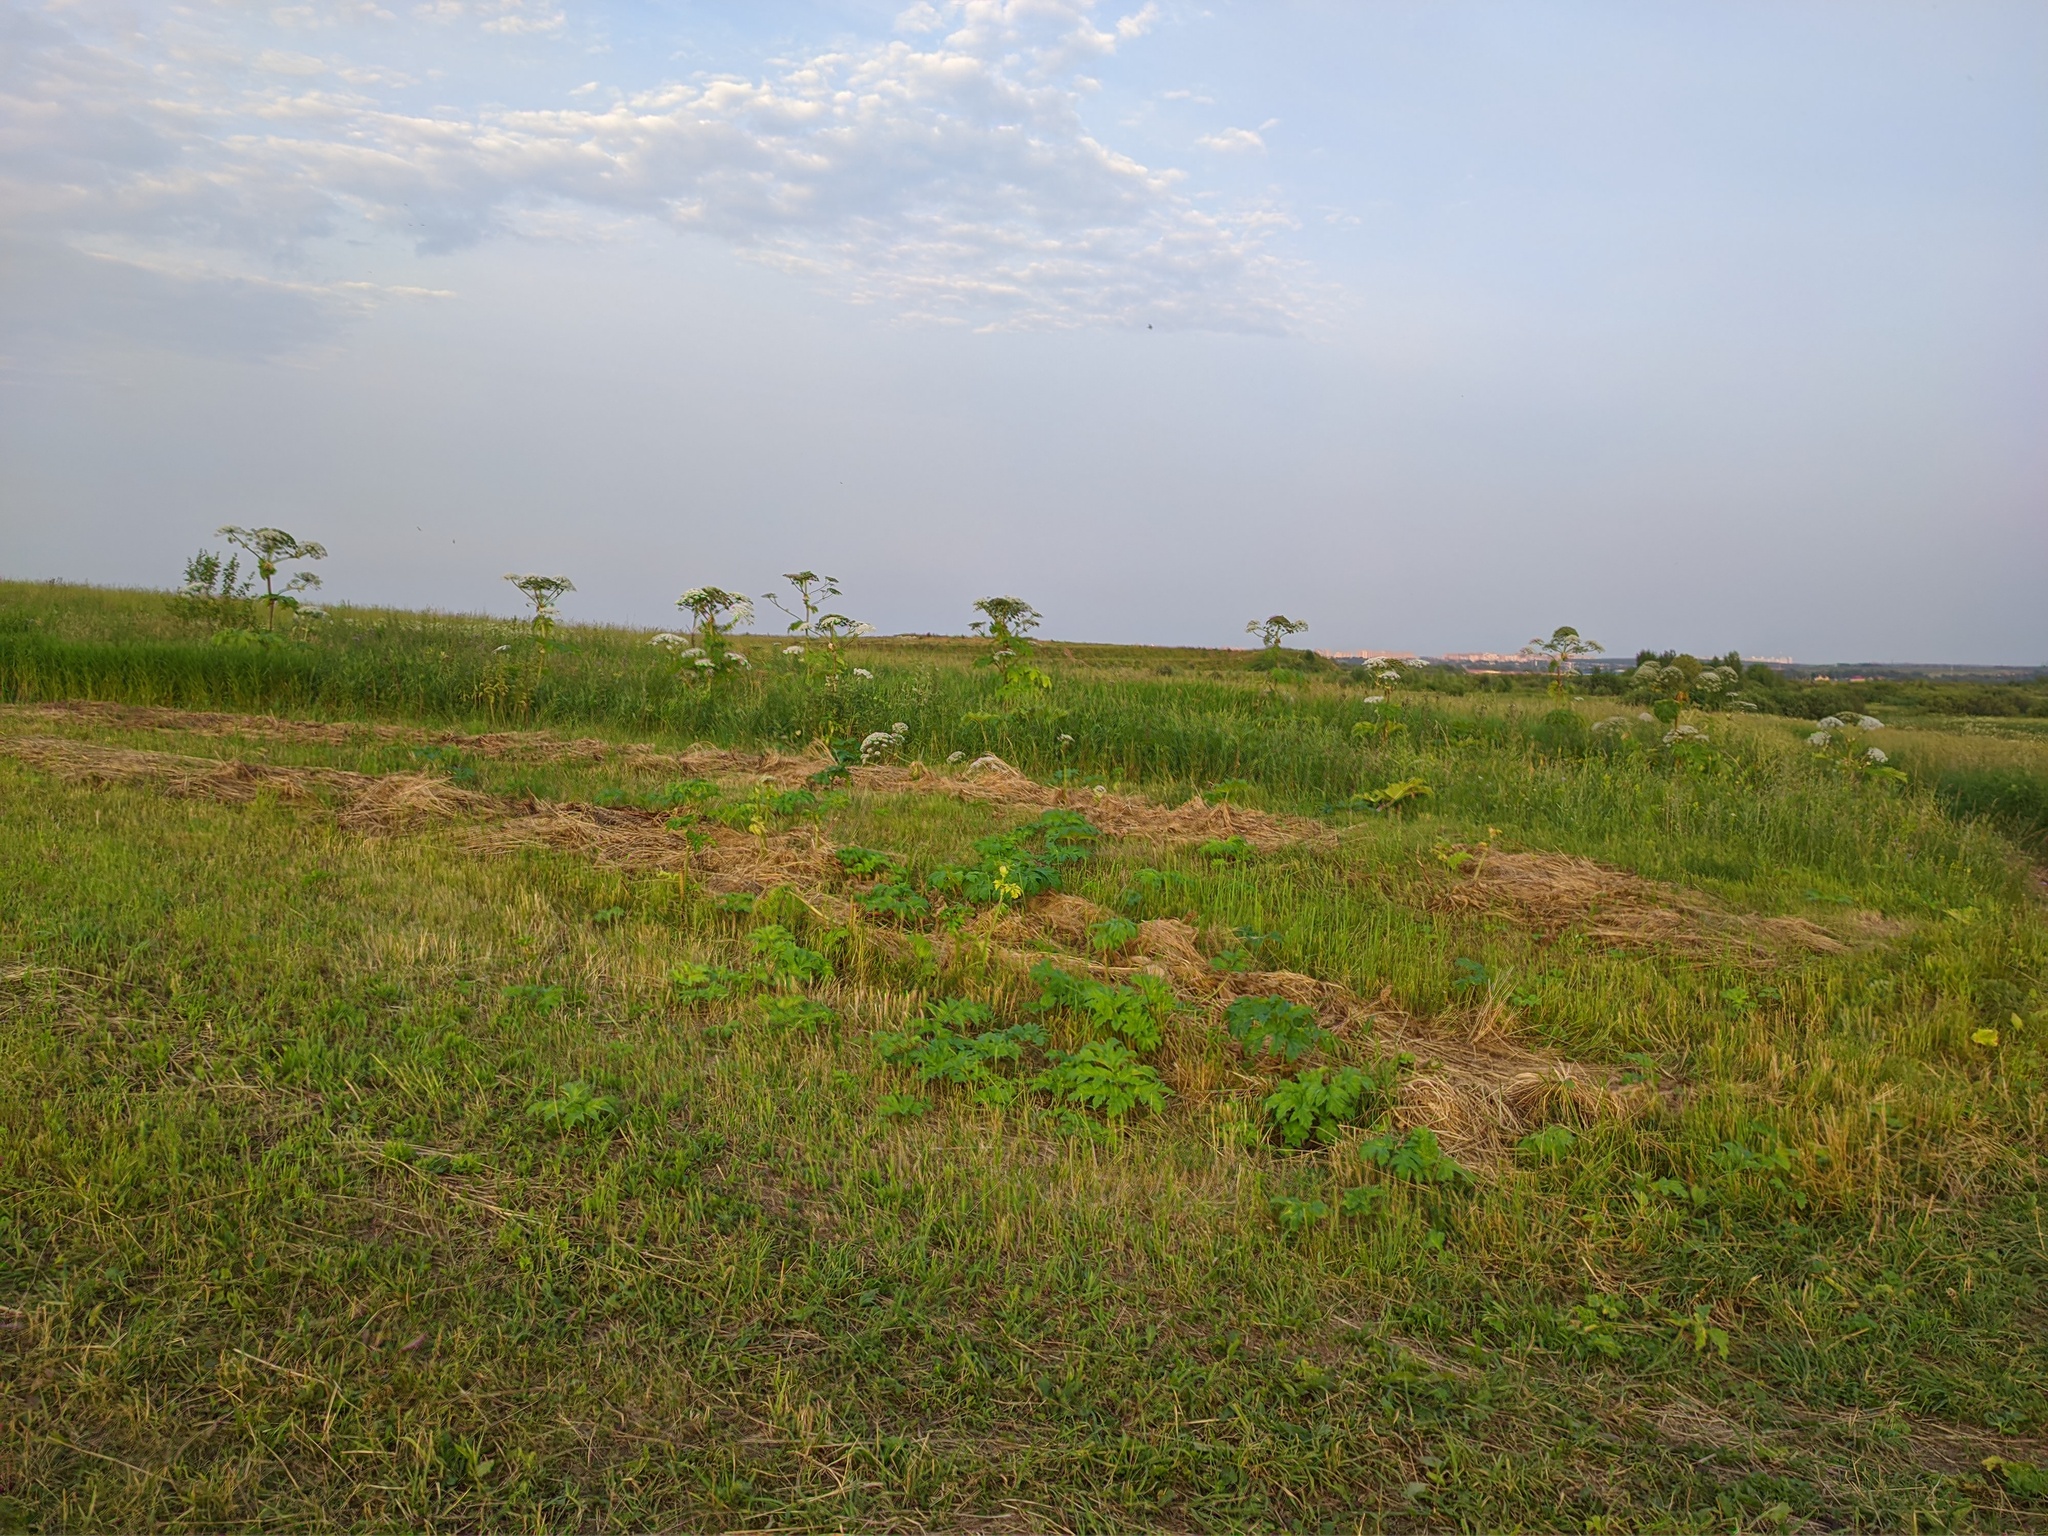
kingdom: Plantae
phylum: Tracheophyta
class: Magnoliopsida
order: Apiales
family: Apiaceae
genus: Heracleum
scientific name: Heracleum sosnowskyi
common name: Sosnowsky's hogweed
